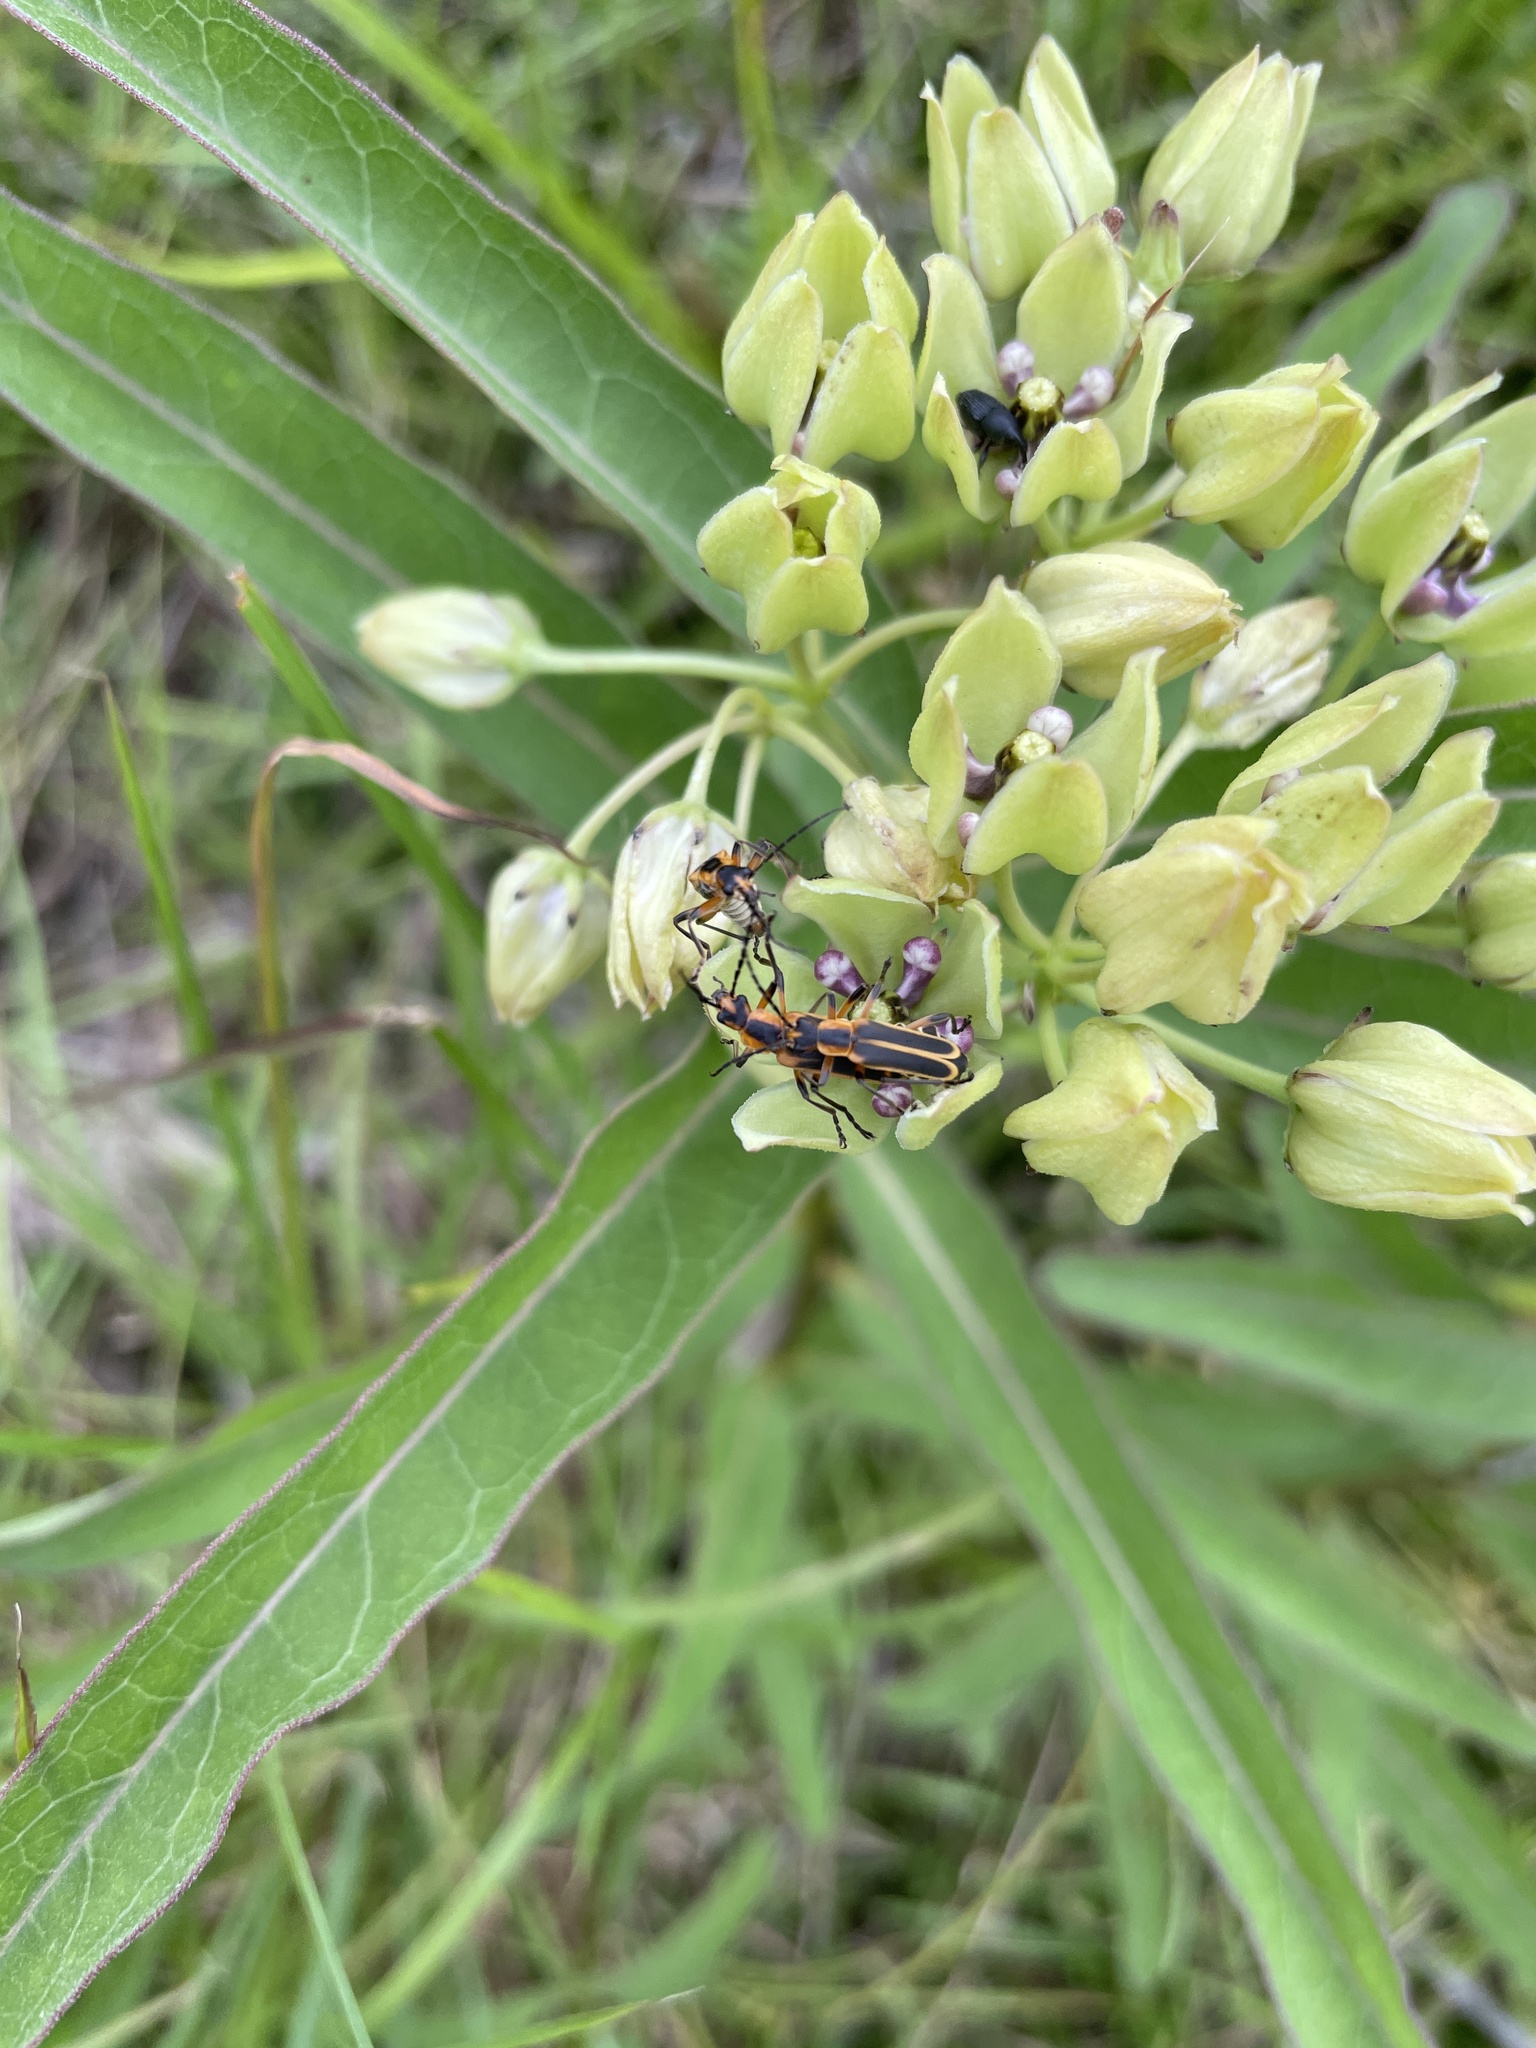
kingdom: Animalia
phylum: Arthropoda
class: Insecta
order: Coleoptera
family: Cantharidae
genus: Chauliognathus
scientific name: Chauliognathus marginatus
